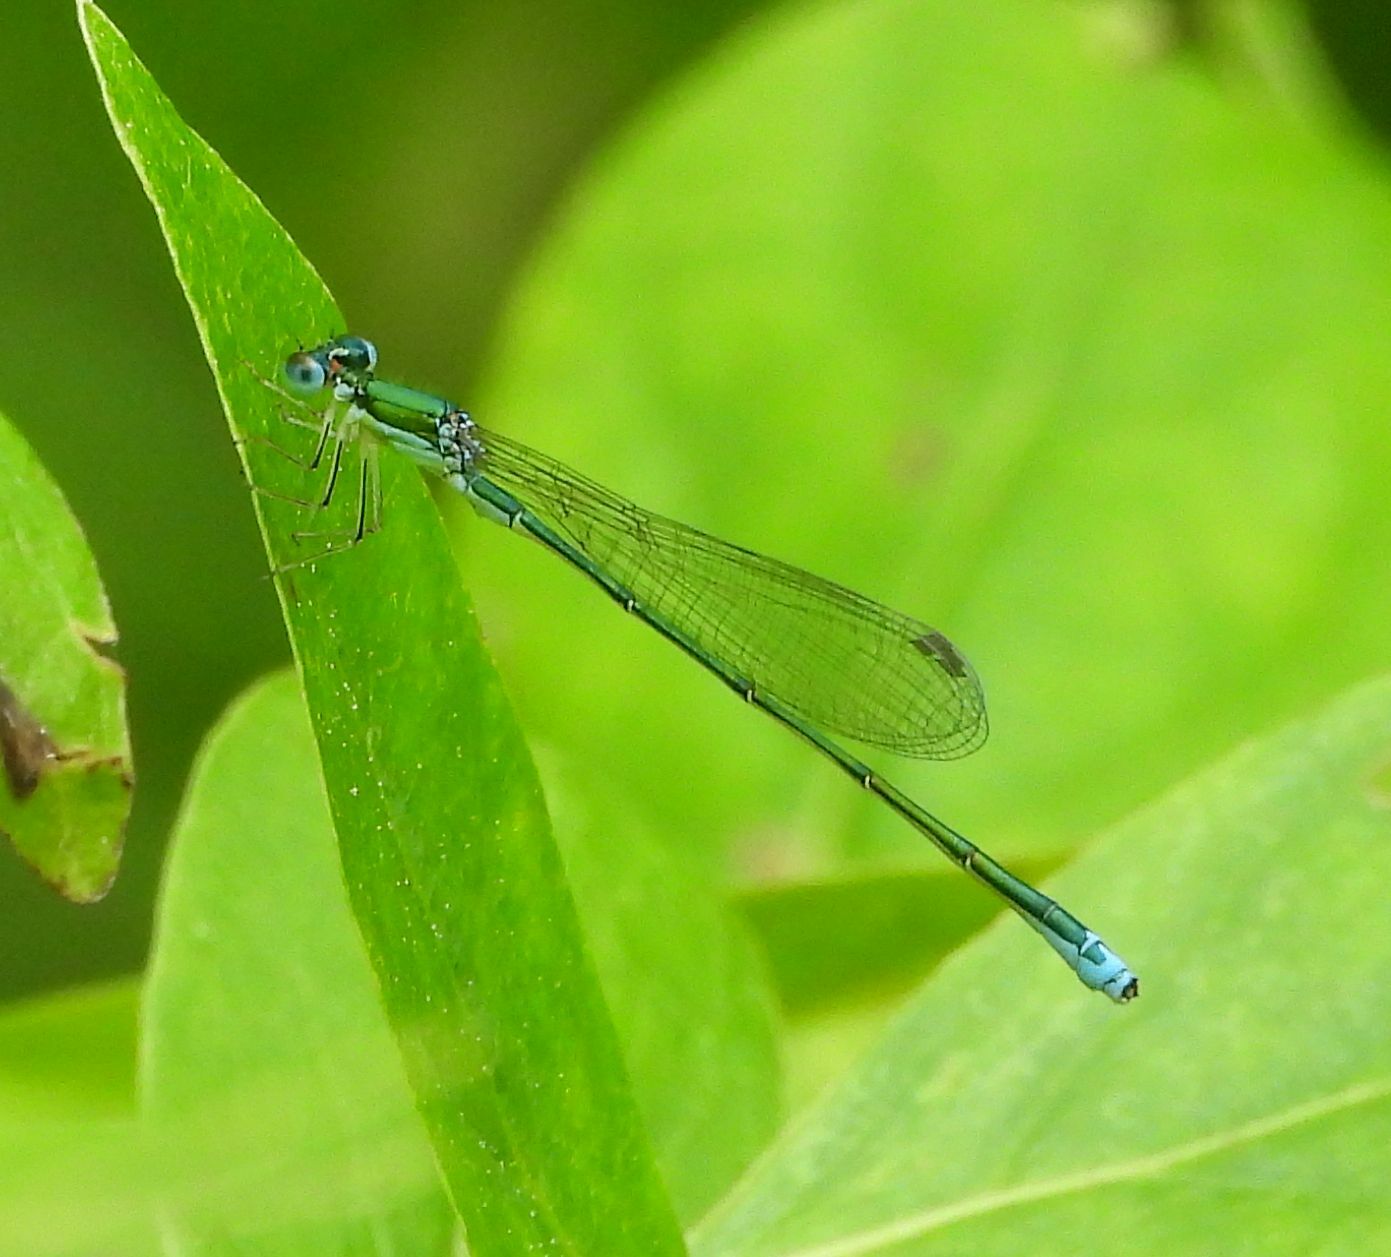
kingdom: Animalia
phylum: Arthropoda
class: Insecta
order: Odonata
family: Coenagrionidae
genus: Nehalennia
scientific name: Nehalennia irene
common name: Sedge sprite
